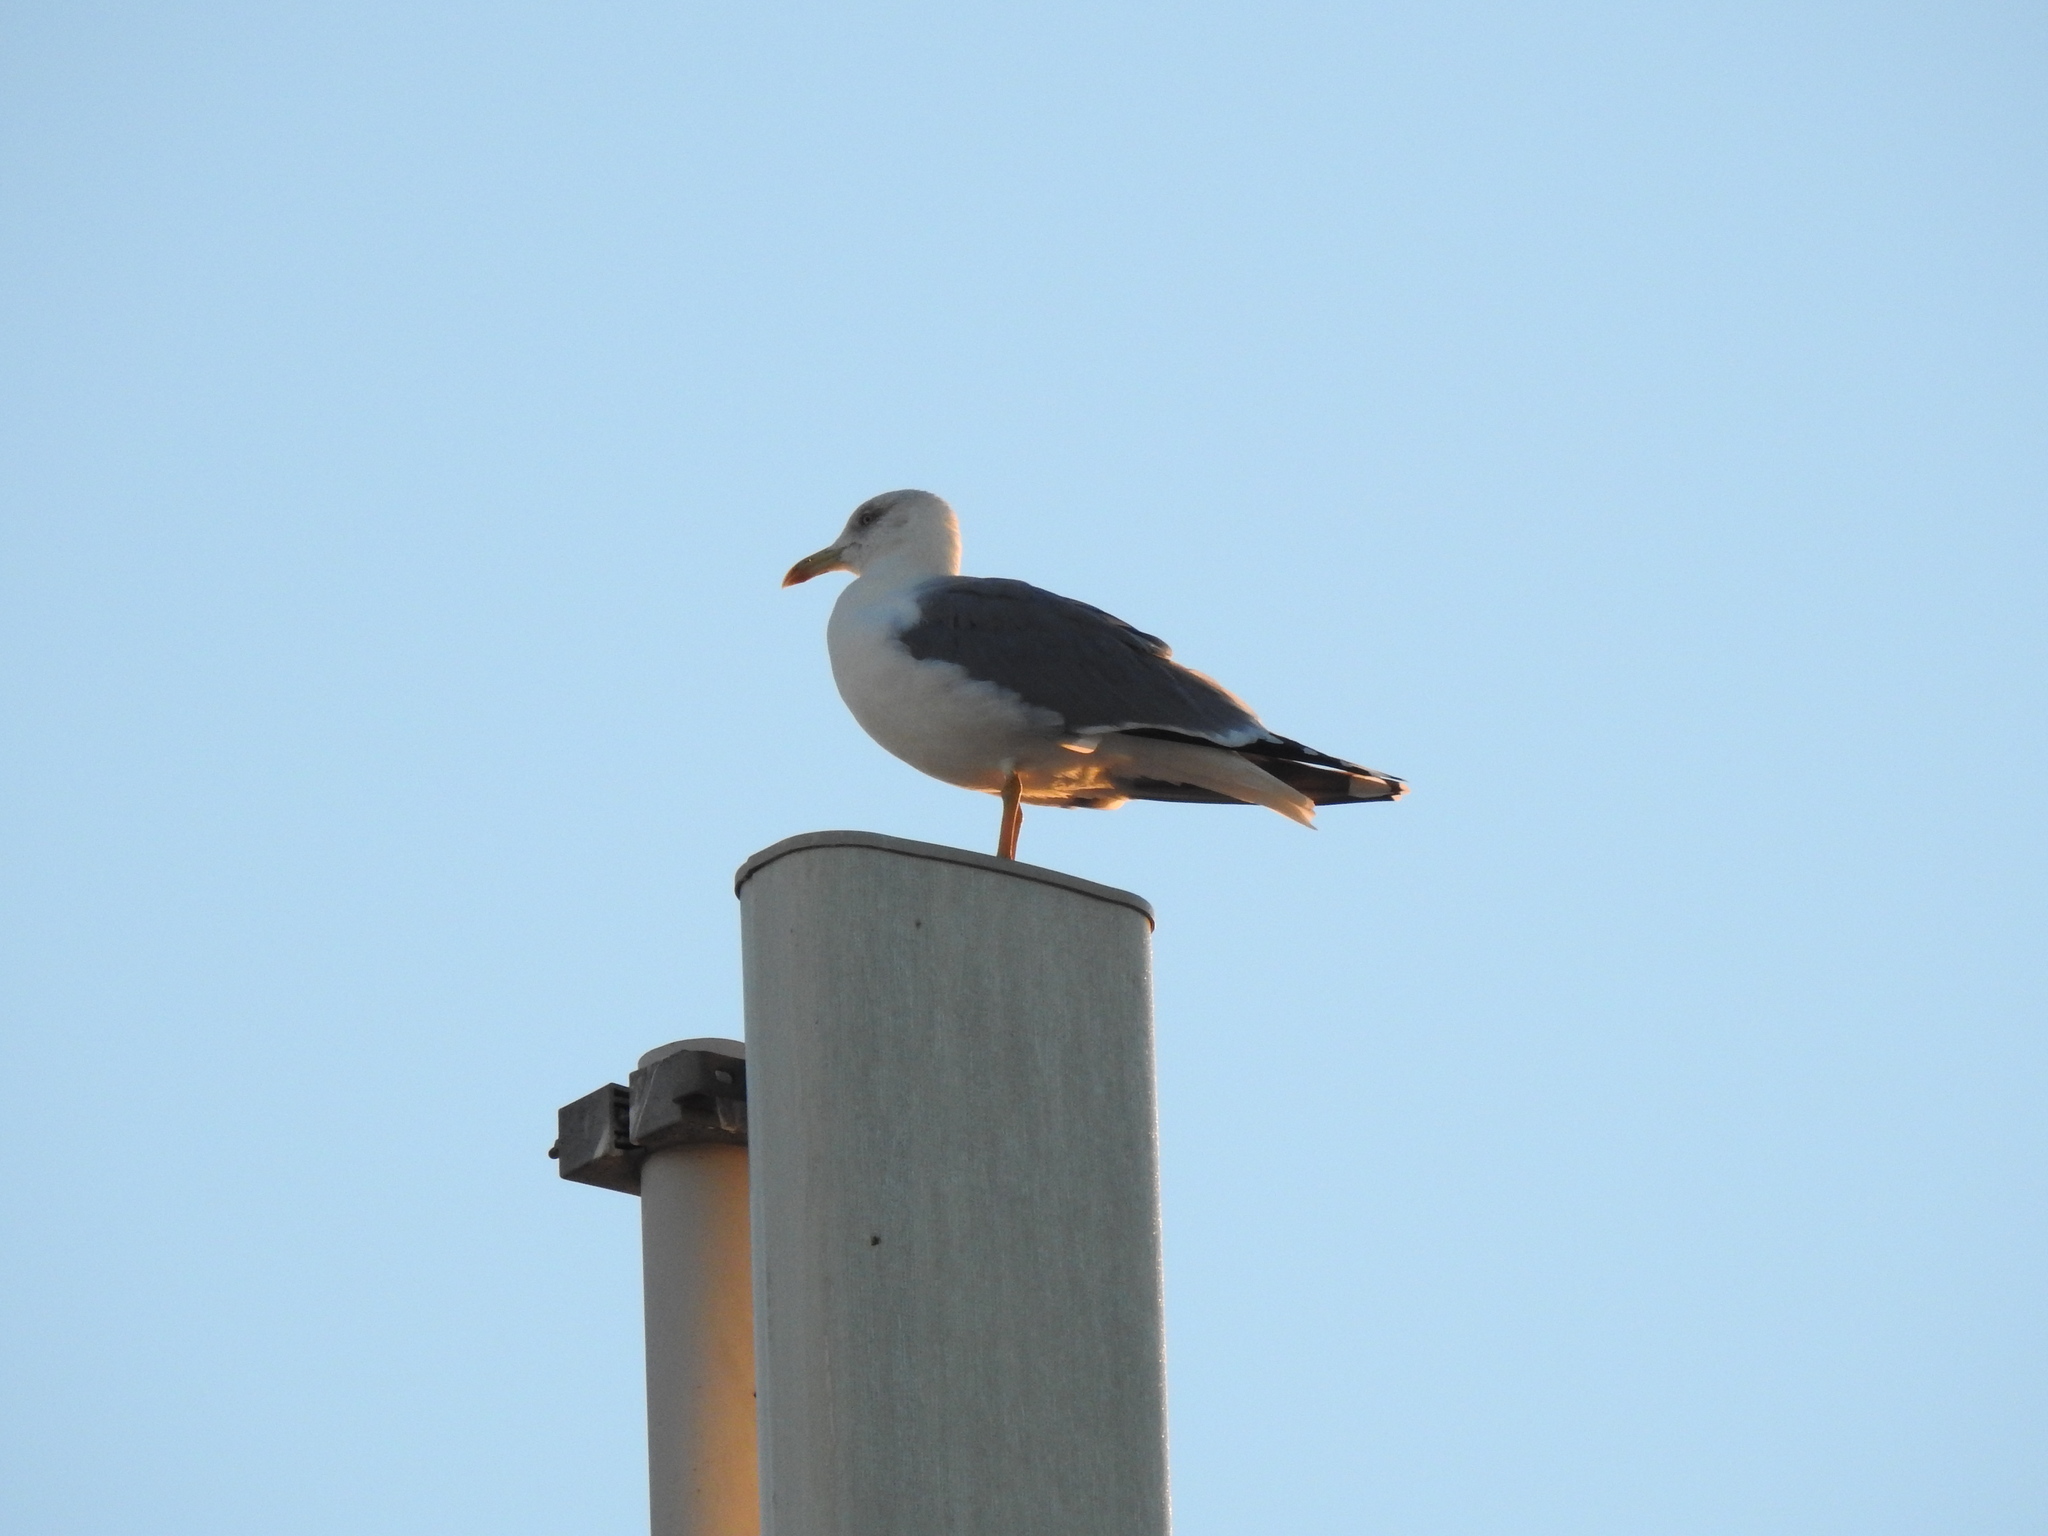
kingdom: Animalia
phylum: Chordata
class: Aves
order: Charadriiformes
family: Laridae
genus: Larus
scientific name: Larus michahellis
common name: Yellow-legged gull
